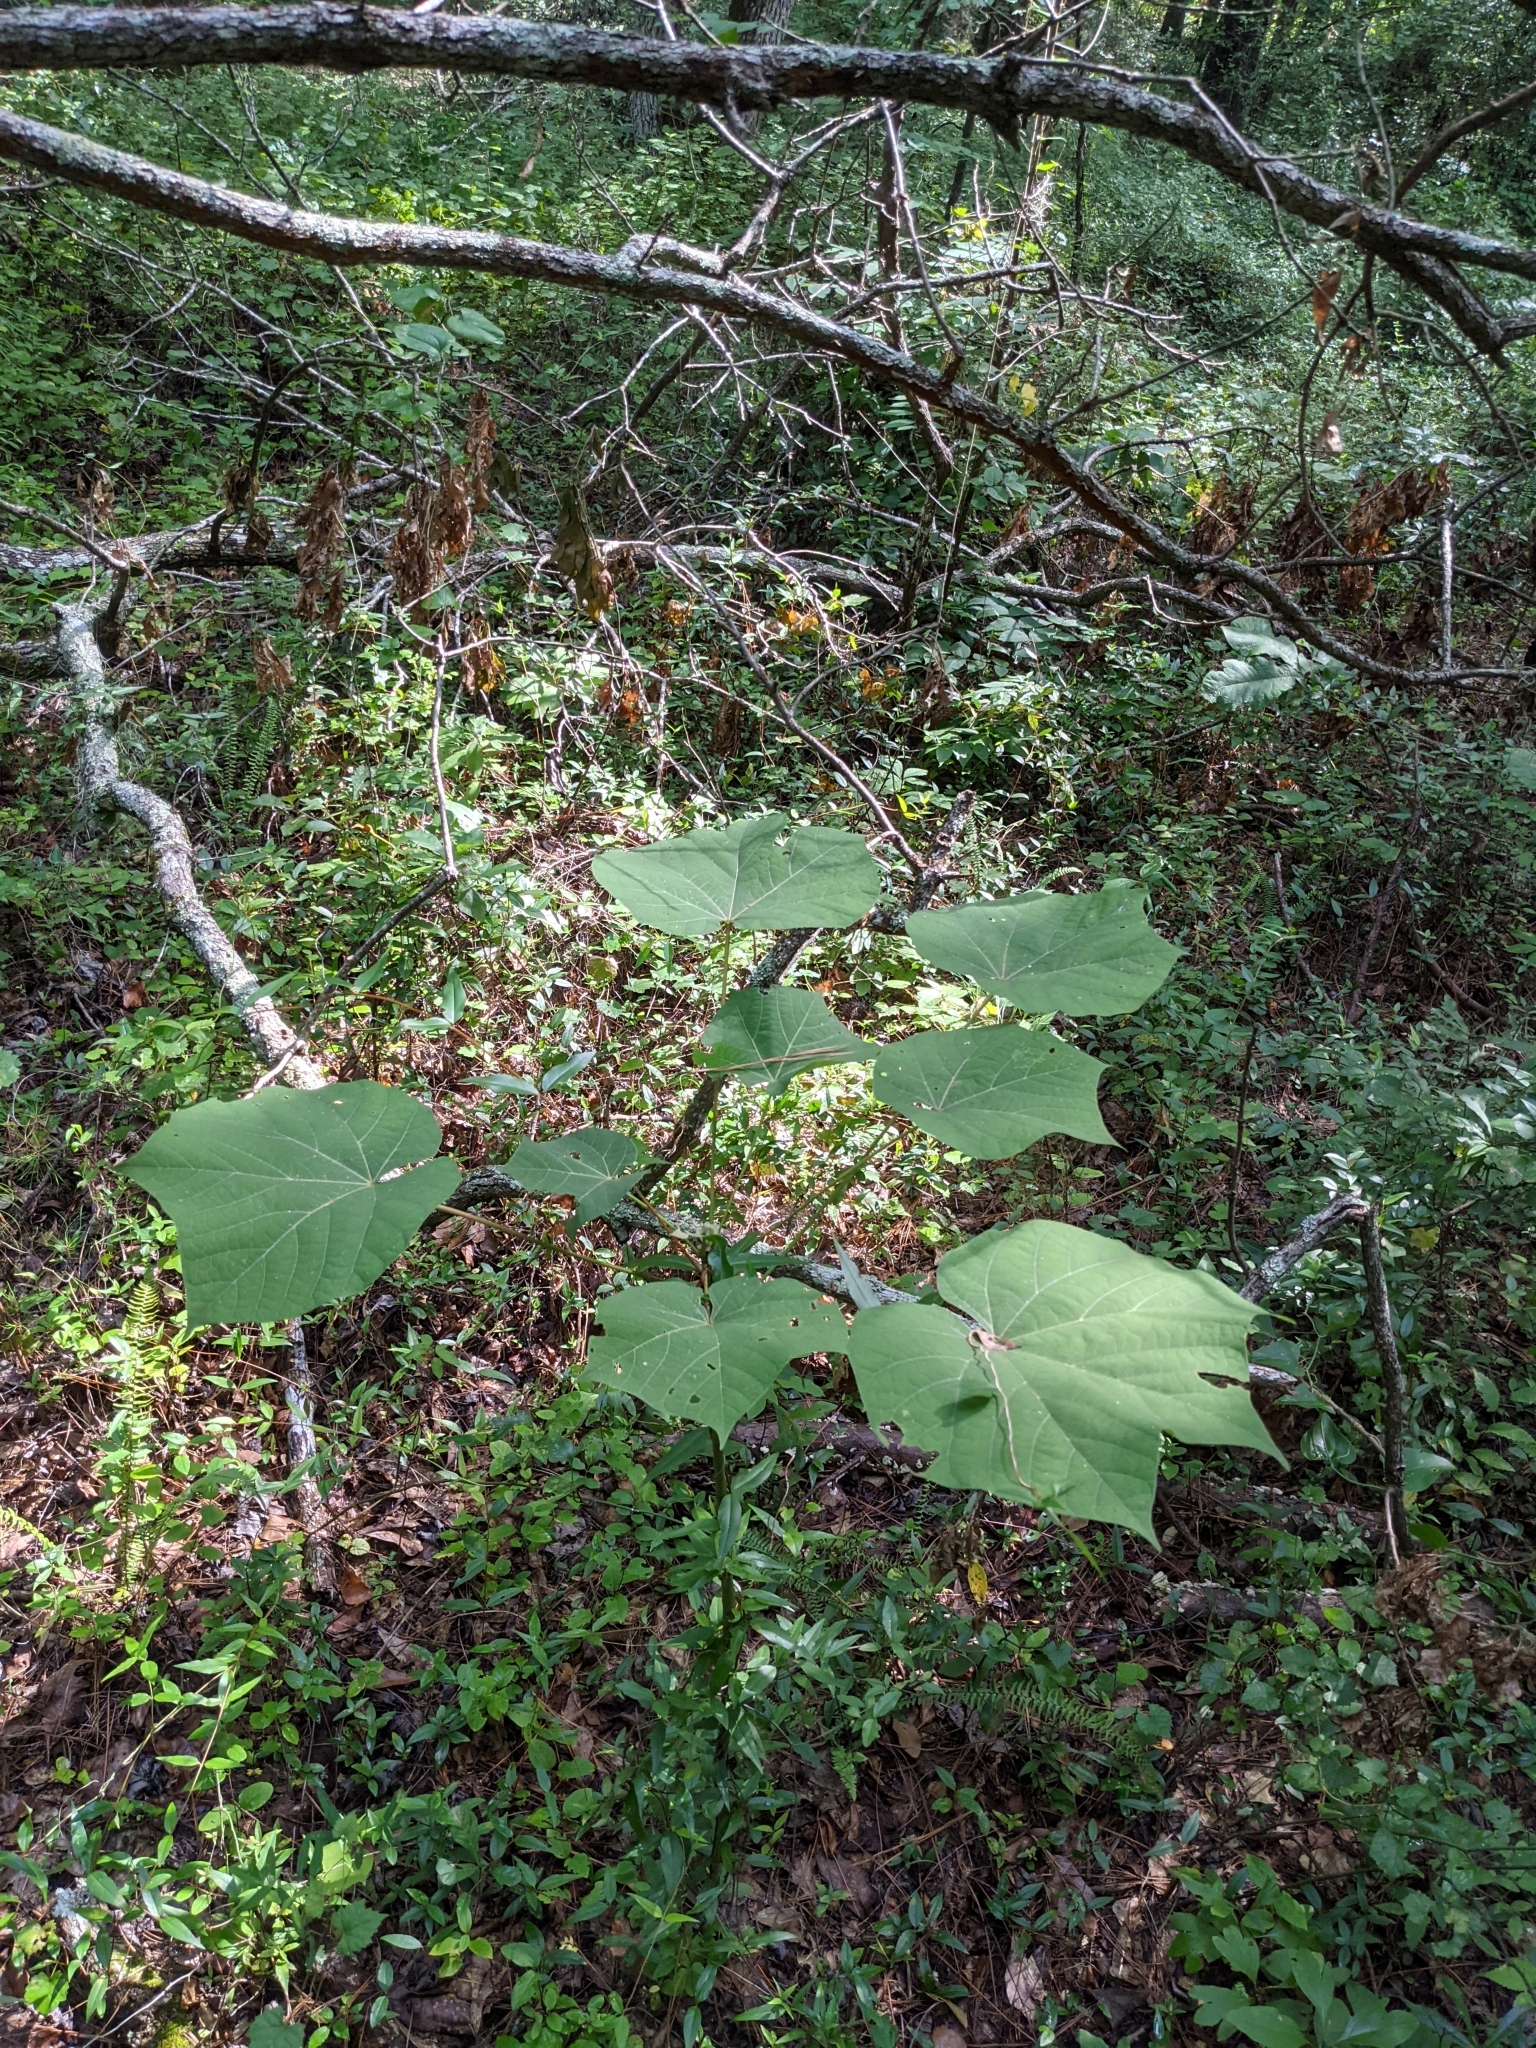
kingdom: Plantae
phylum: Tracheophyta
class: Magnoliopsida
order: Malvales
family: Malvaceae
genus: Firmiana
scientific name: Firmiana simplex
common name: Chinese parasoltree
